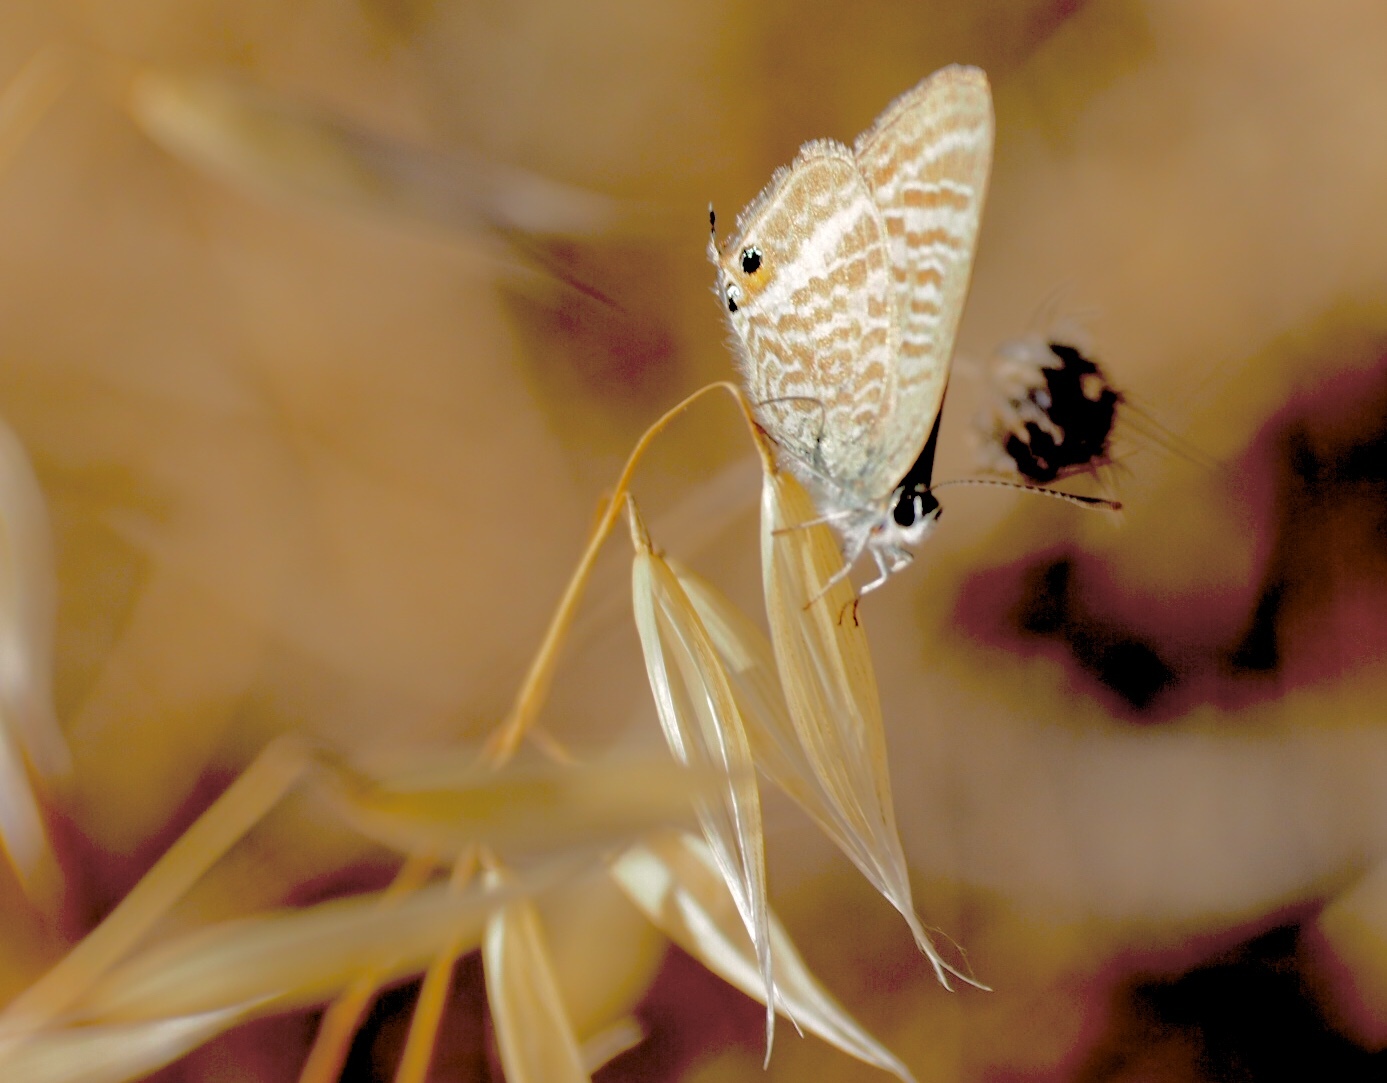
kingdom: Animalia
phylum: Arthropoda
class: Insecta
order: Lepidoptera
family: Lycaenidae
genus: Lampides
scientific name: Lampides boeticus
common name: Long-tailed blue
